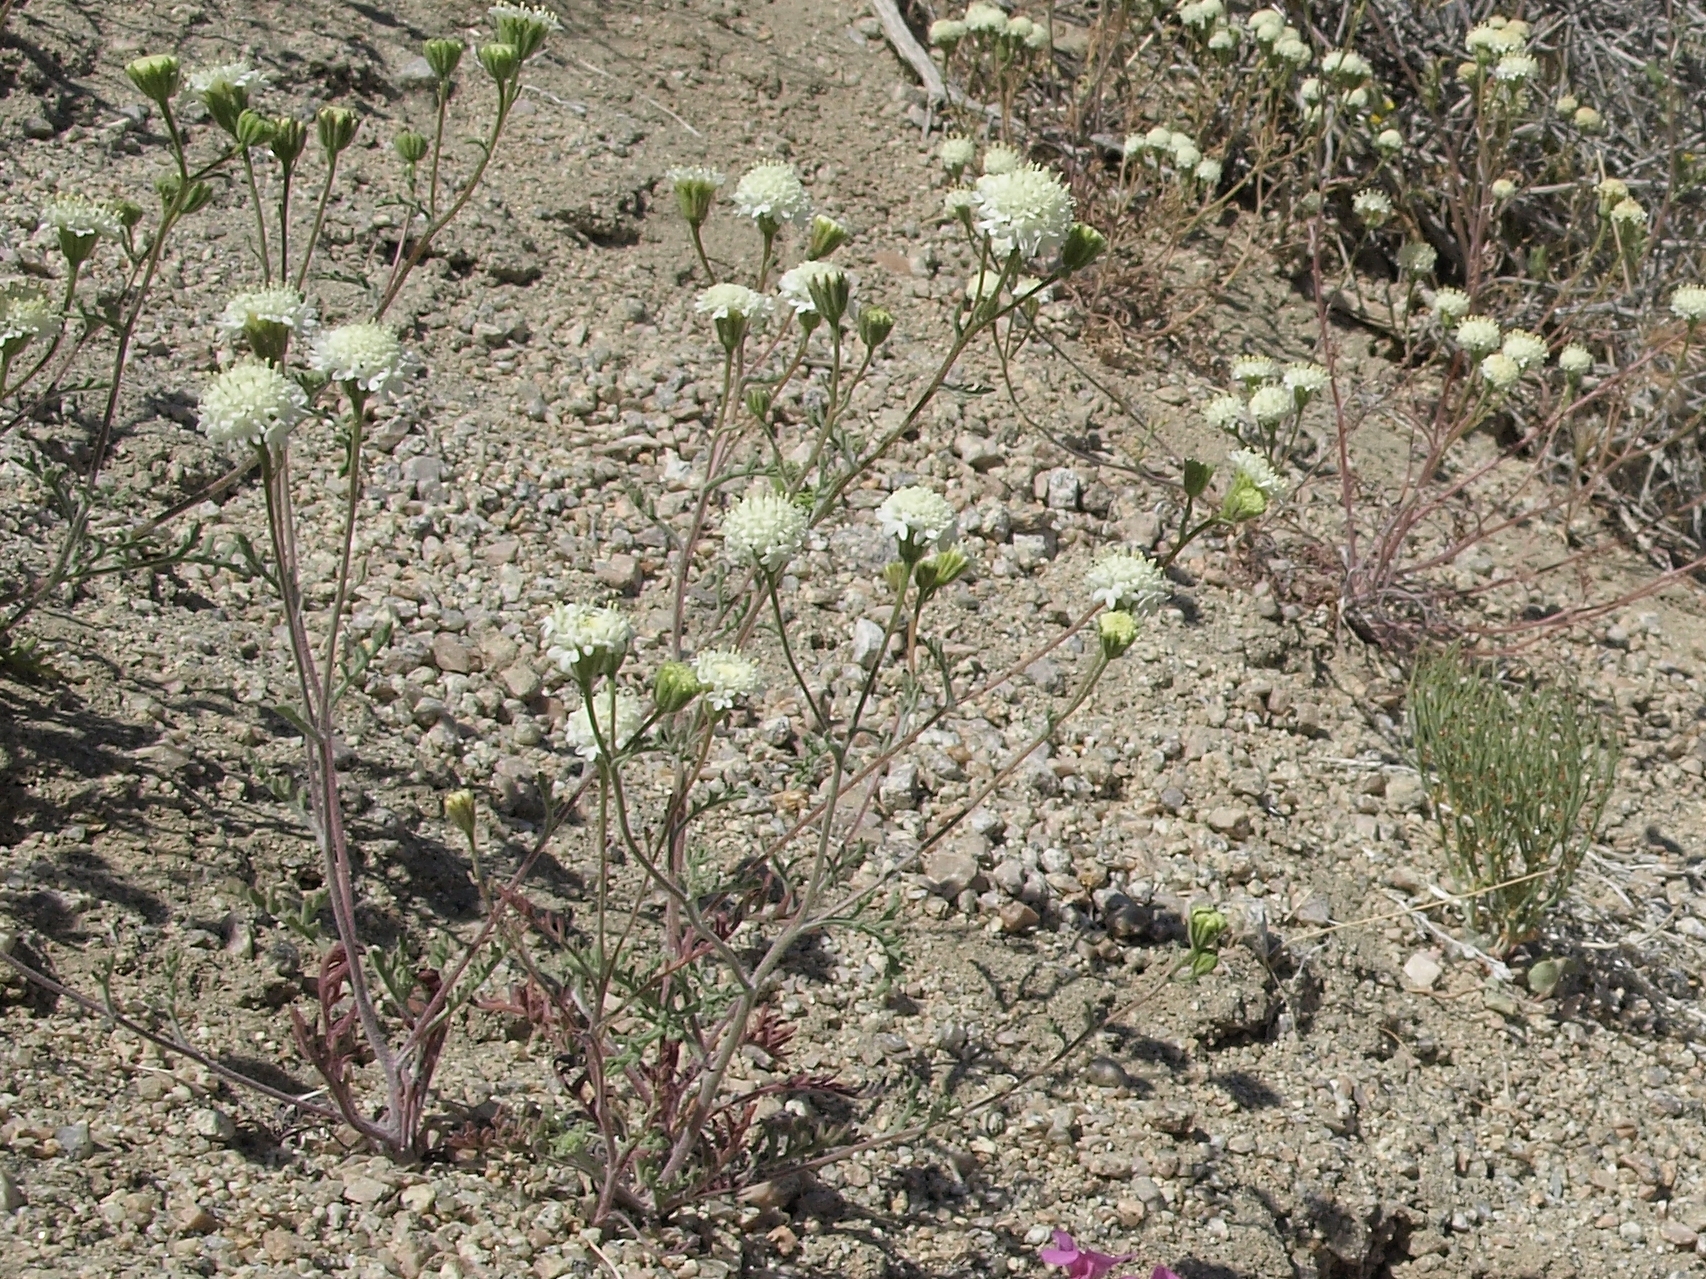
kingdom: Plantae
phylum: Tracheophyta
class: Magnoliopsida
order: Asterales
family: Asteraceae
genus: Chaenactis
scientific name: Chaenactis stevioides
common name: Desert pincushion
